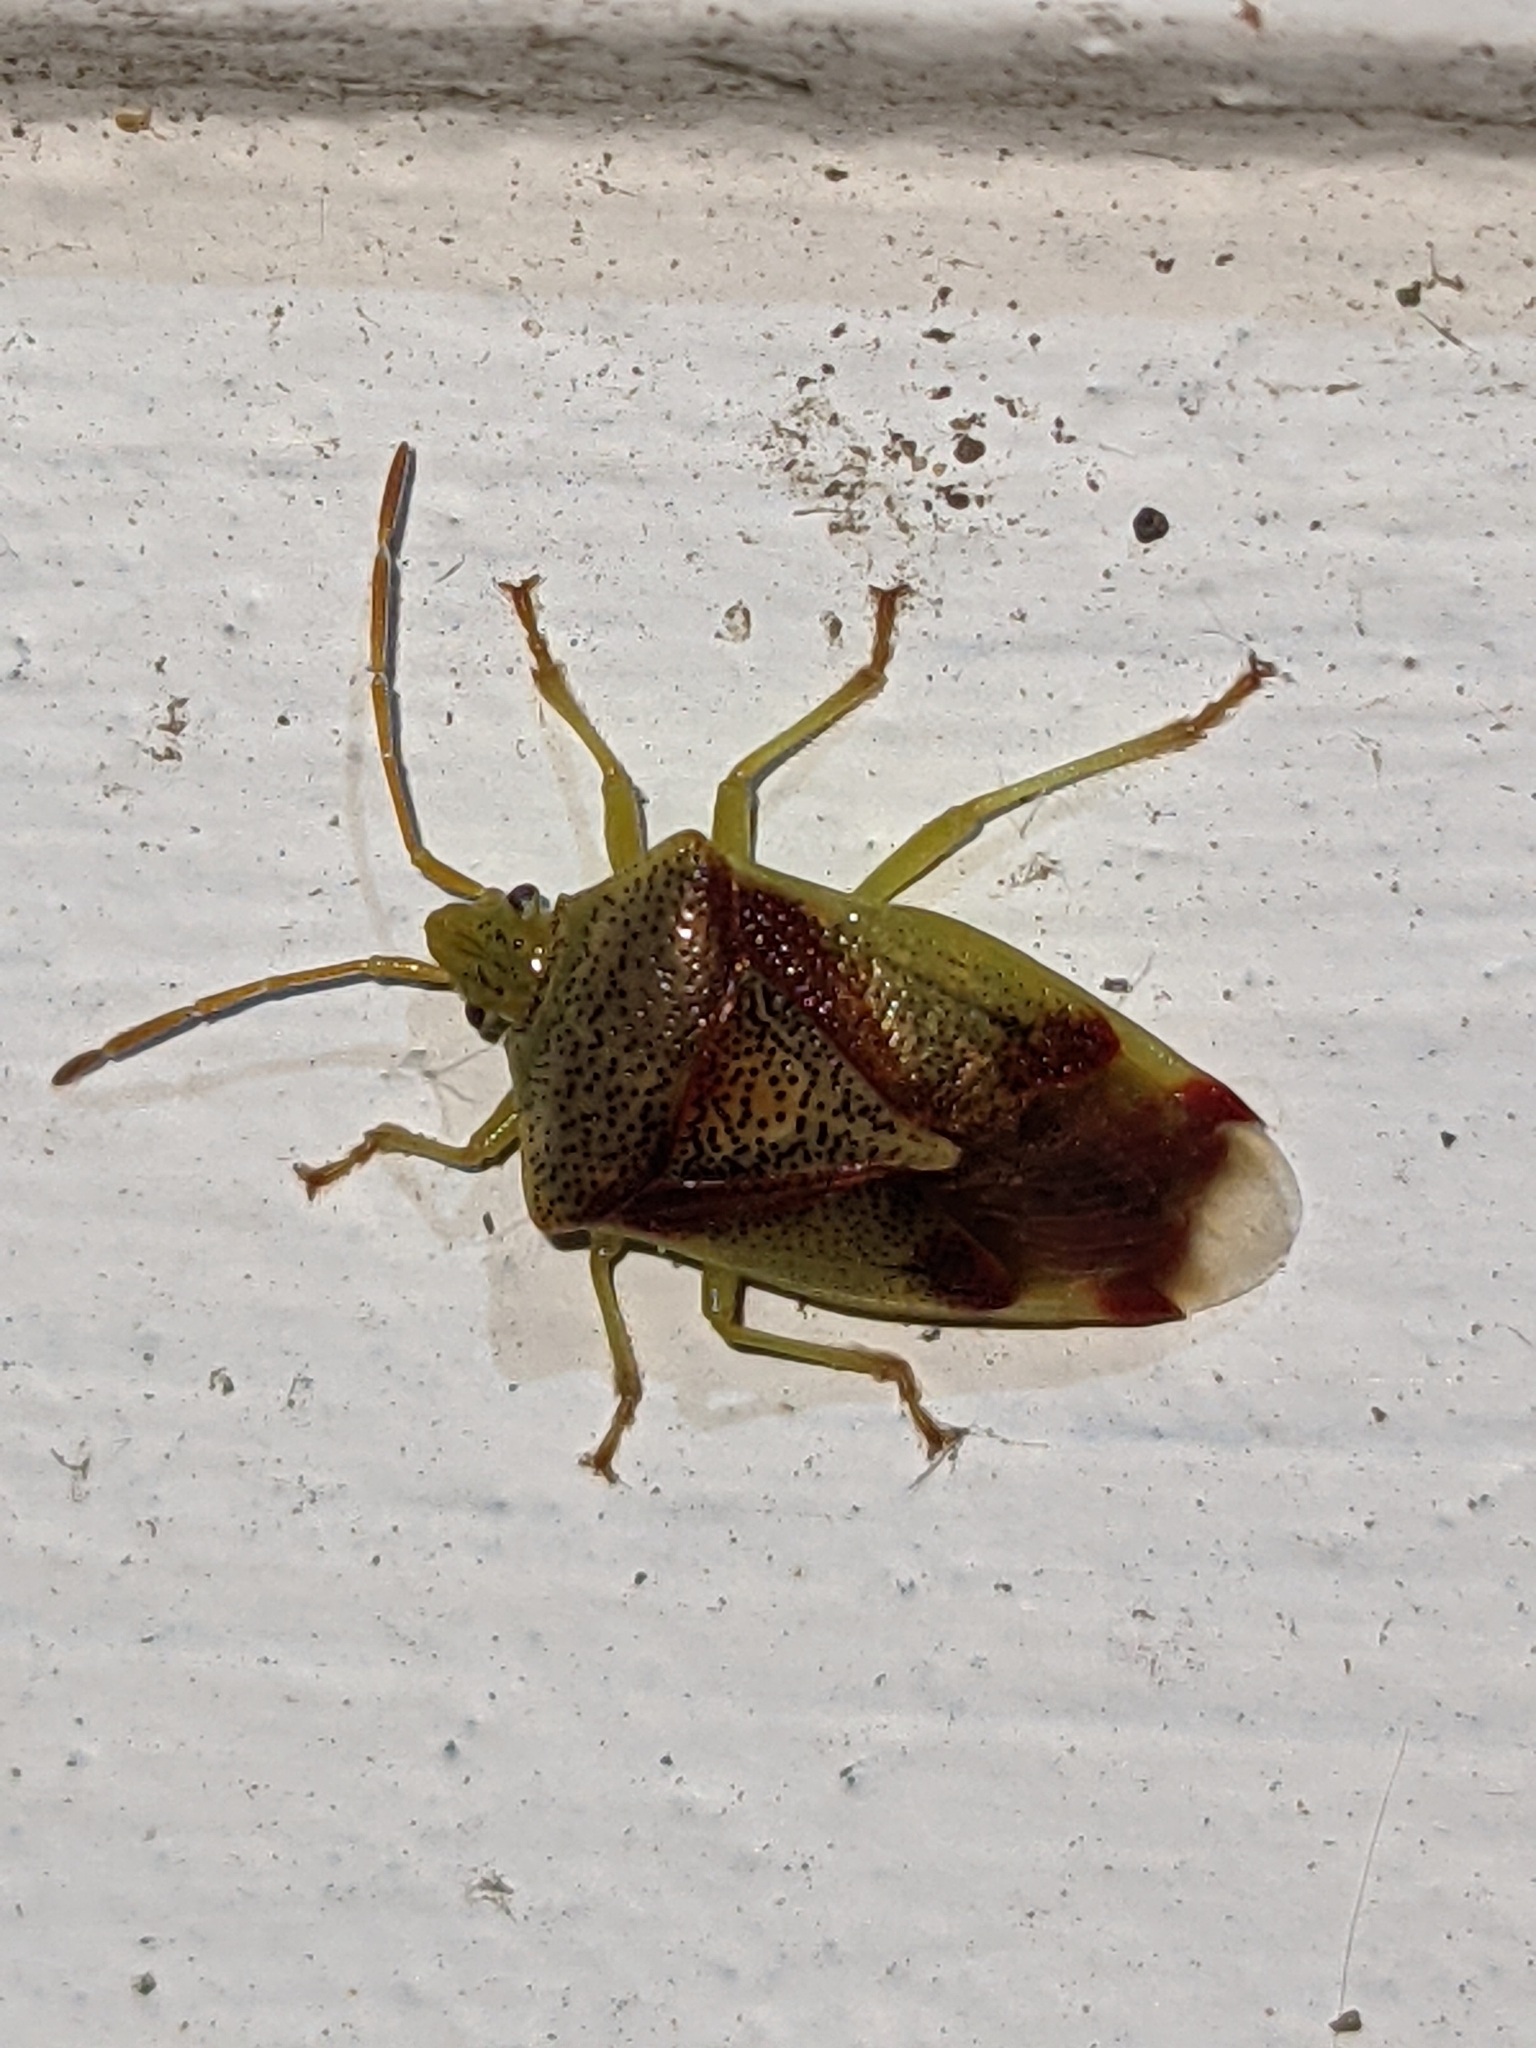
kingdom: Animalia
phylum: Arthropoda
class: Insecta
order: Hemiptera
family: Acanthosomatidae
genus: Elasmostethus
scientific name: Elasmostethus cruciatus
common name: Red-cross shield bug
